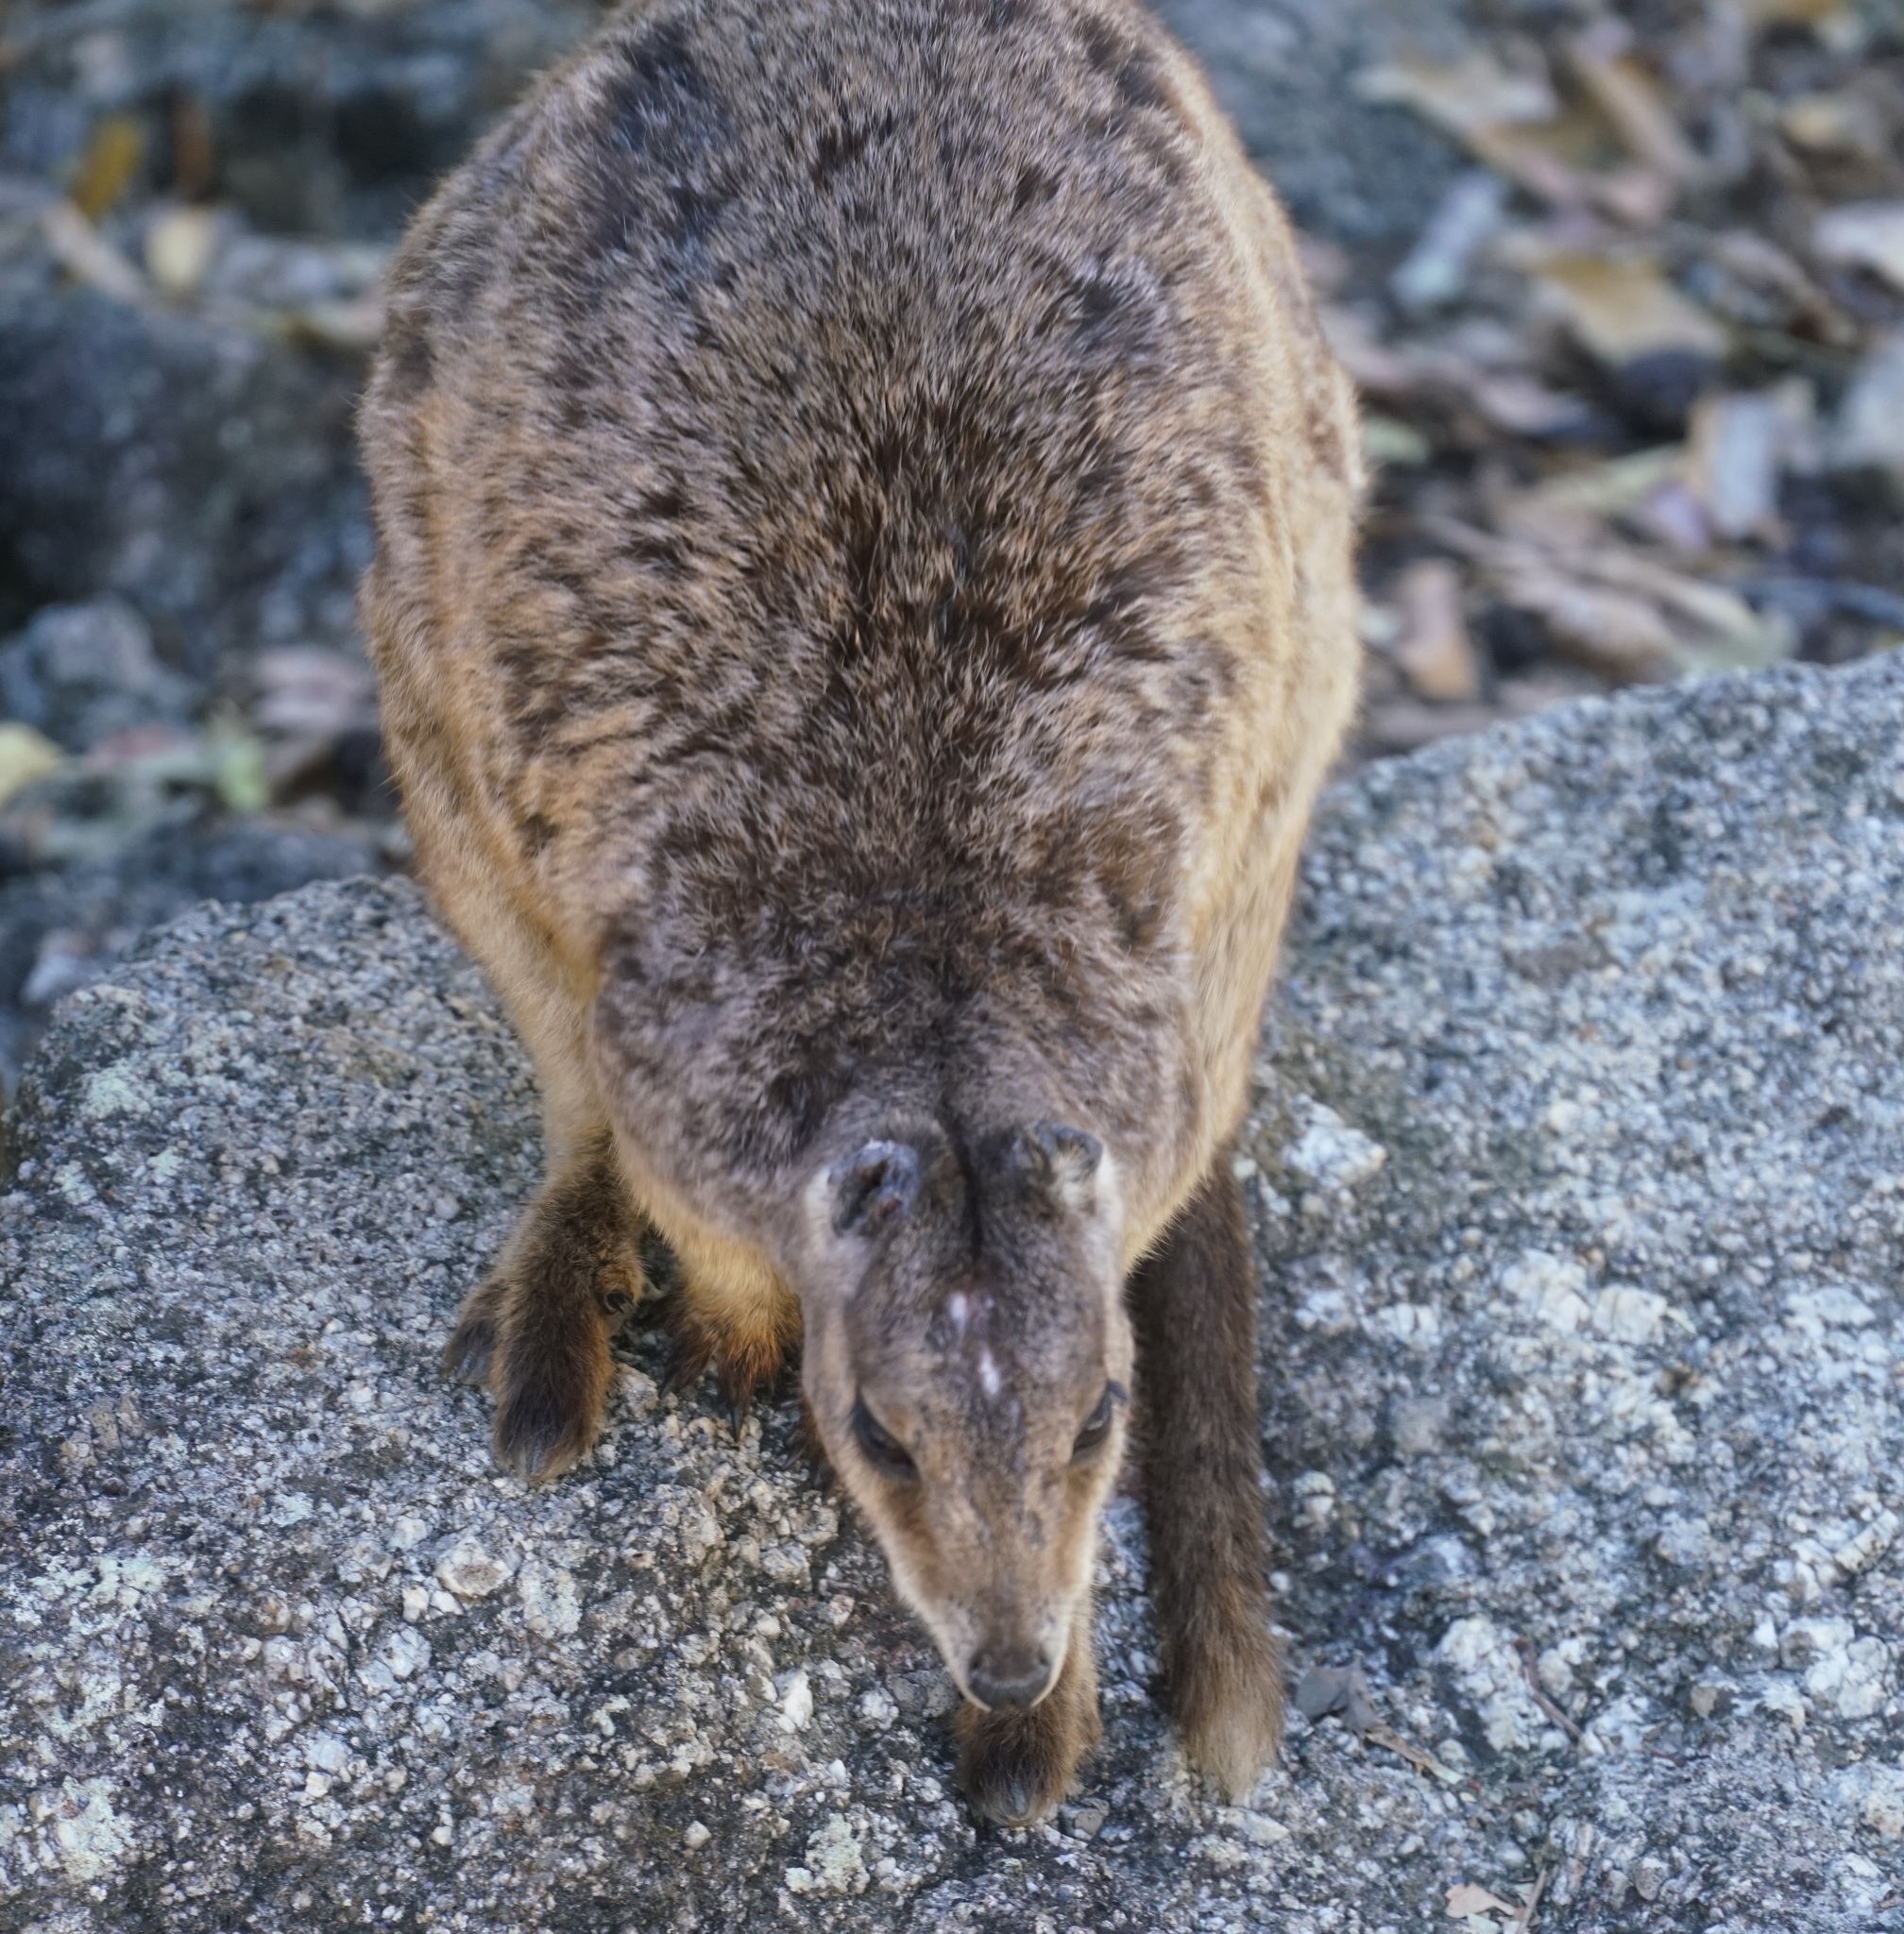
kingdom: Animalia
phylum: Chordata
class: Mammalia
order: Diprotodontia
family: Macropodidae
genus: Petrogale
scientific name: Petrogale mareeba
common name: Mareeba rock-wallaby
